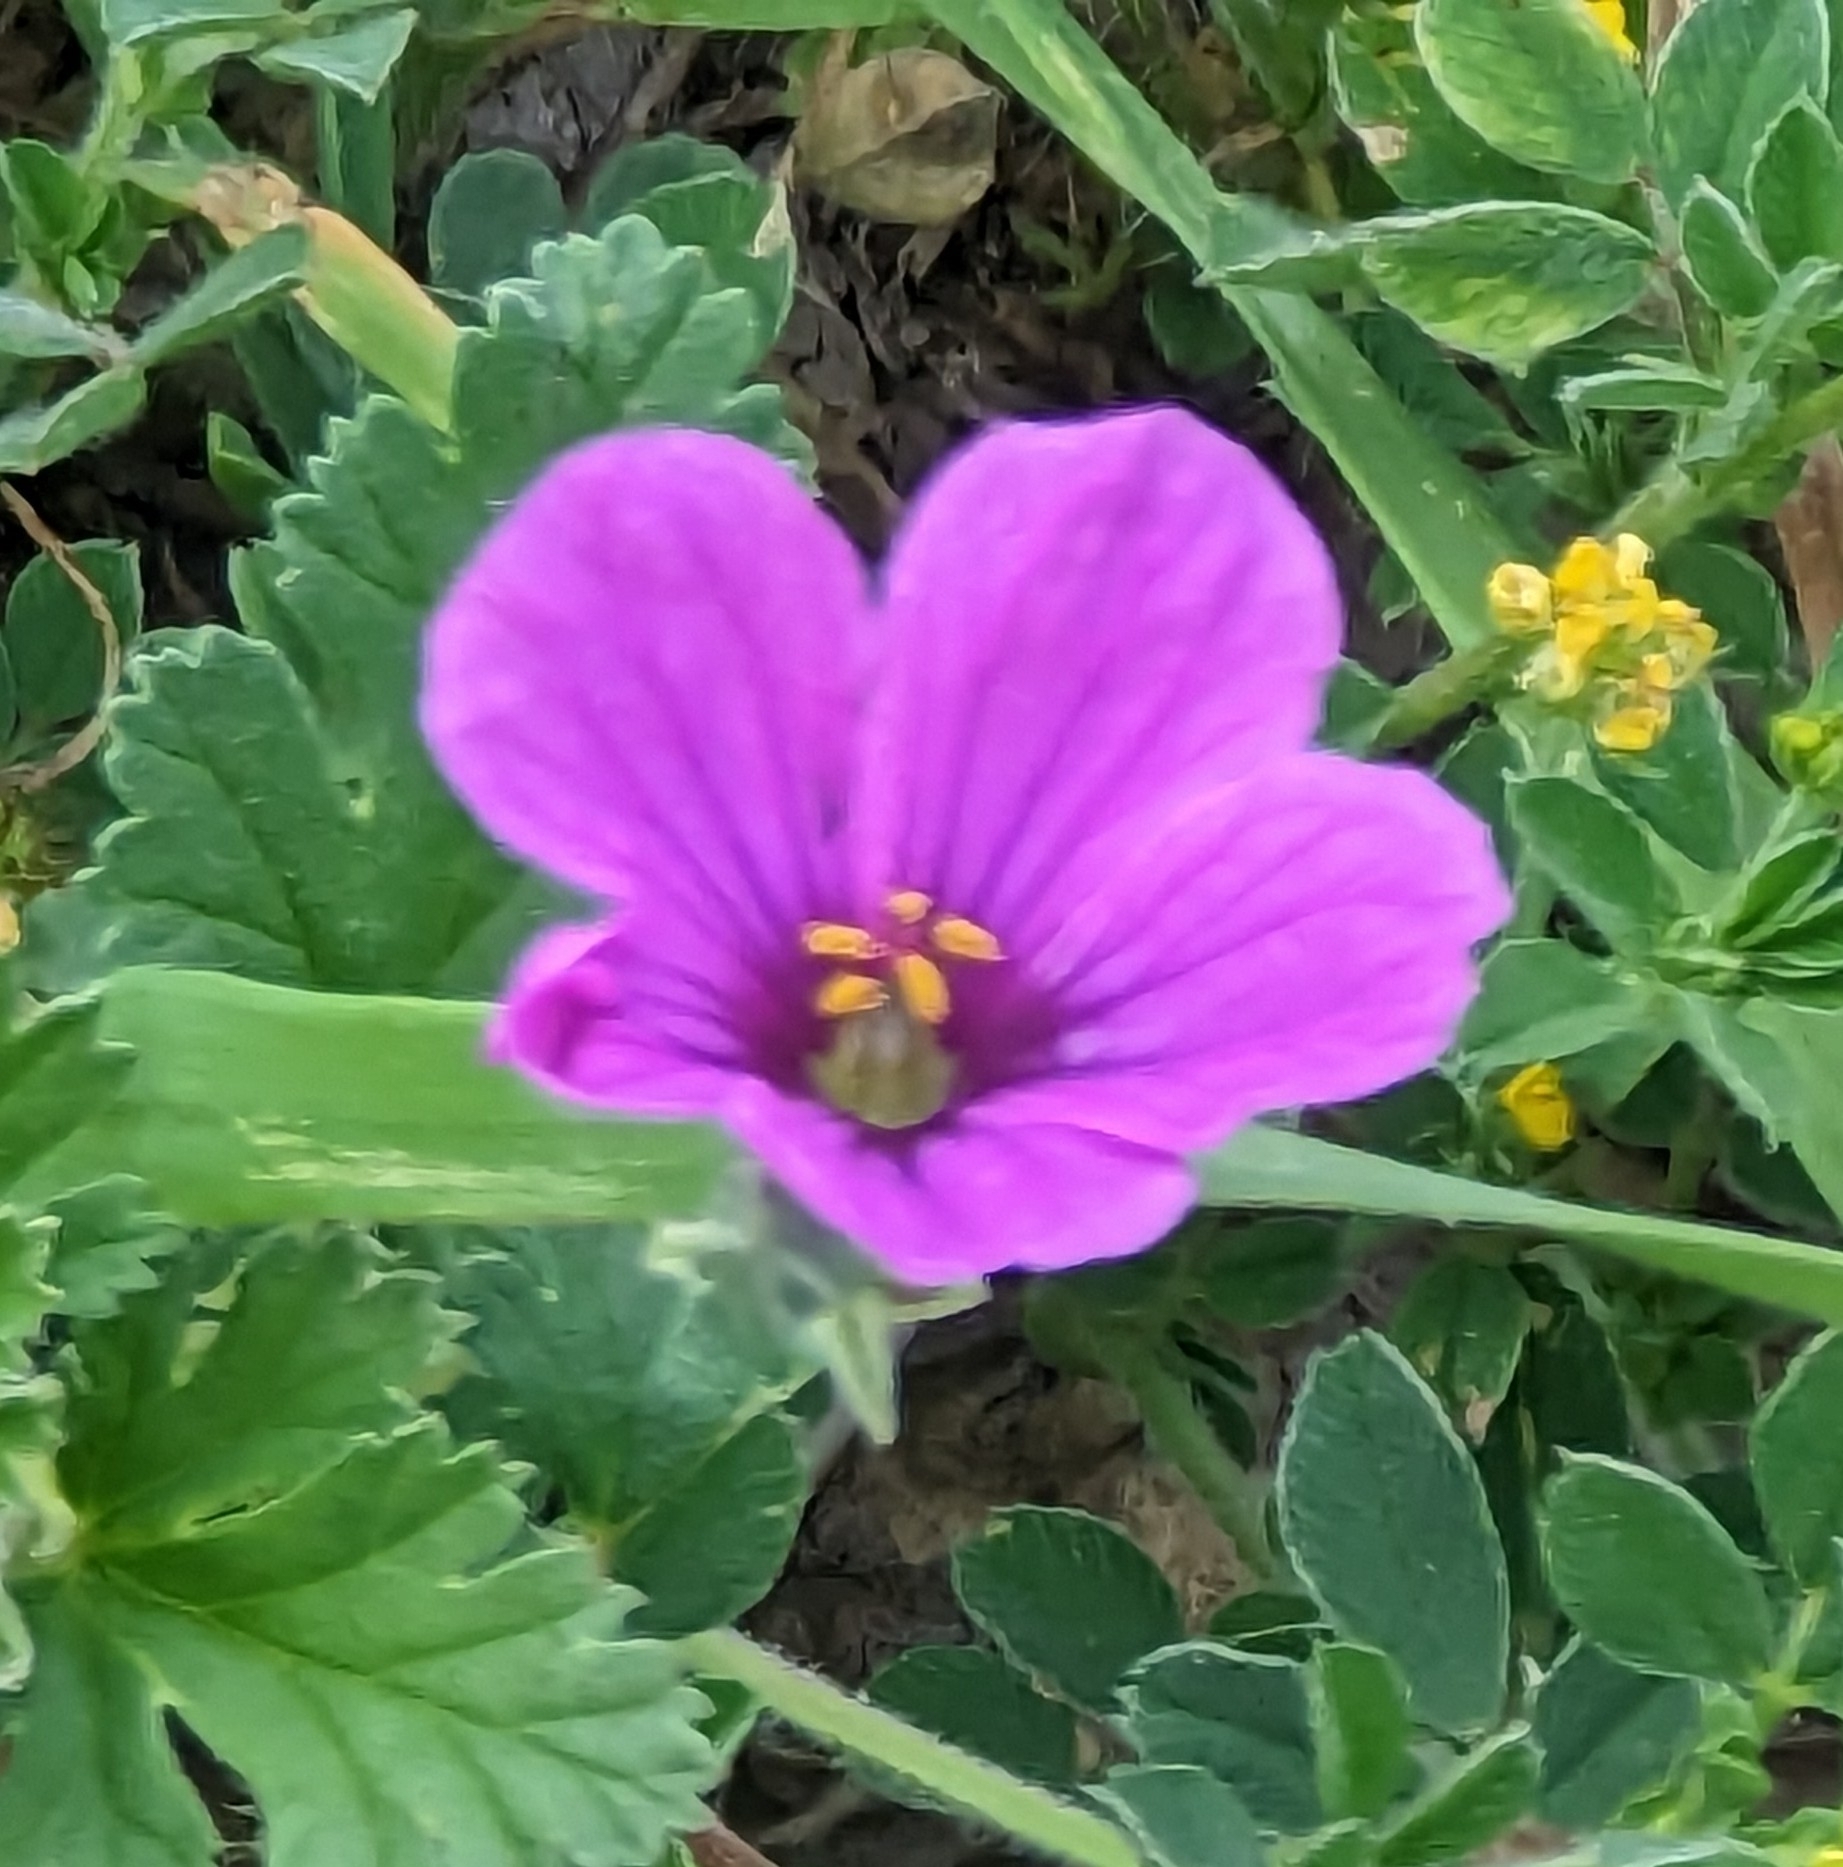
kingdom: Plantae
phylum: Tracheophyta
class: Magnoliopsida
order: Geraniales
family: Geraniaceae
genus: Erodium
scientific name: Erodium texanum
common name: Texas stork's-bill
